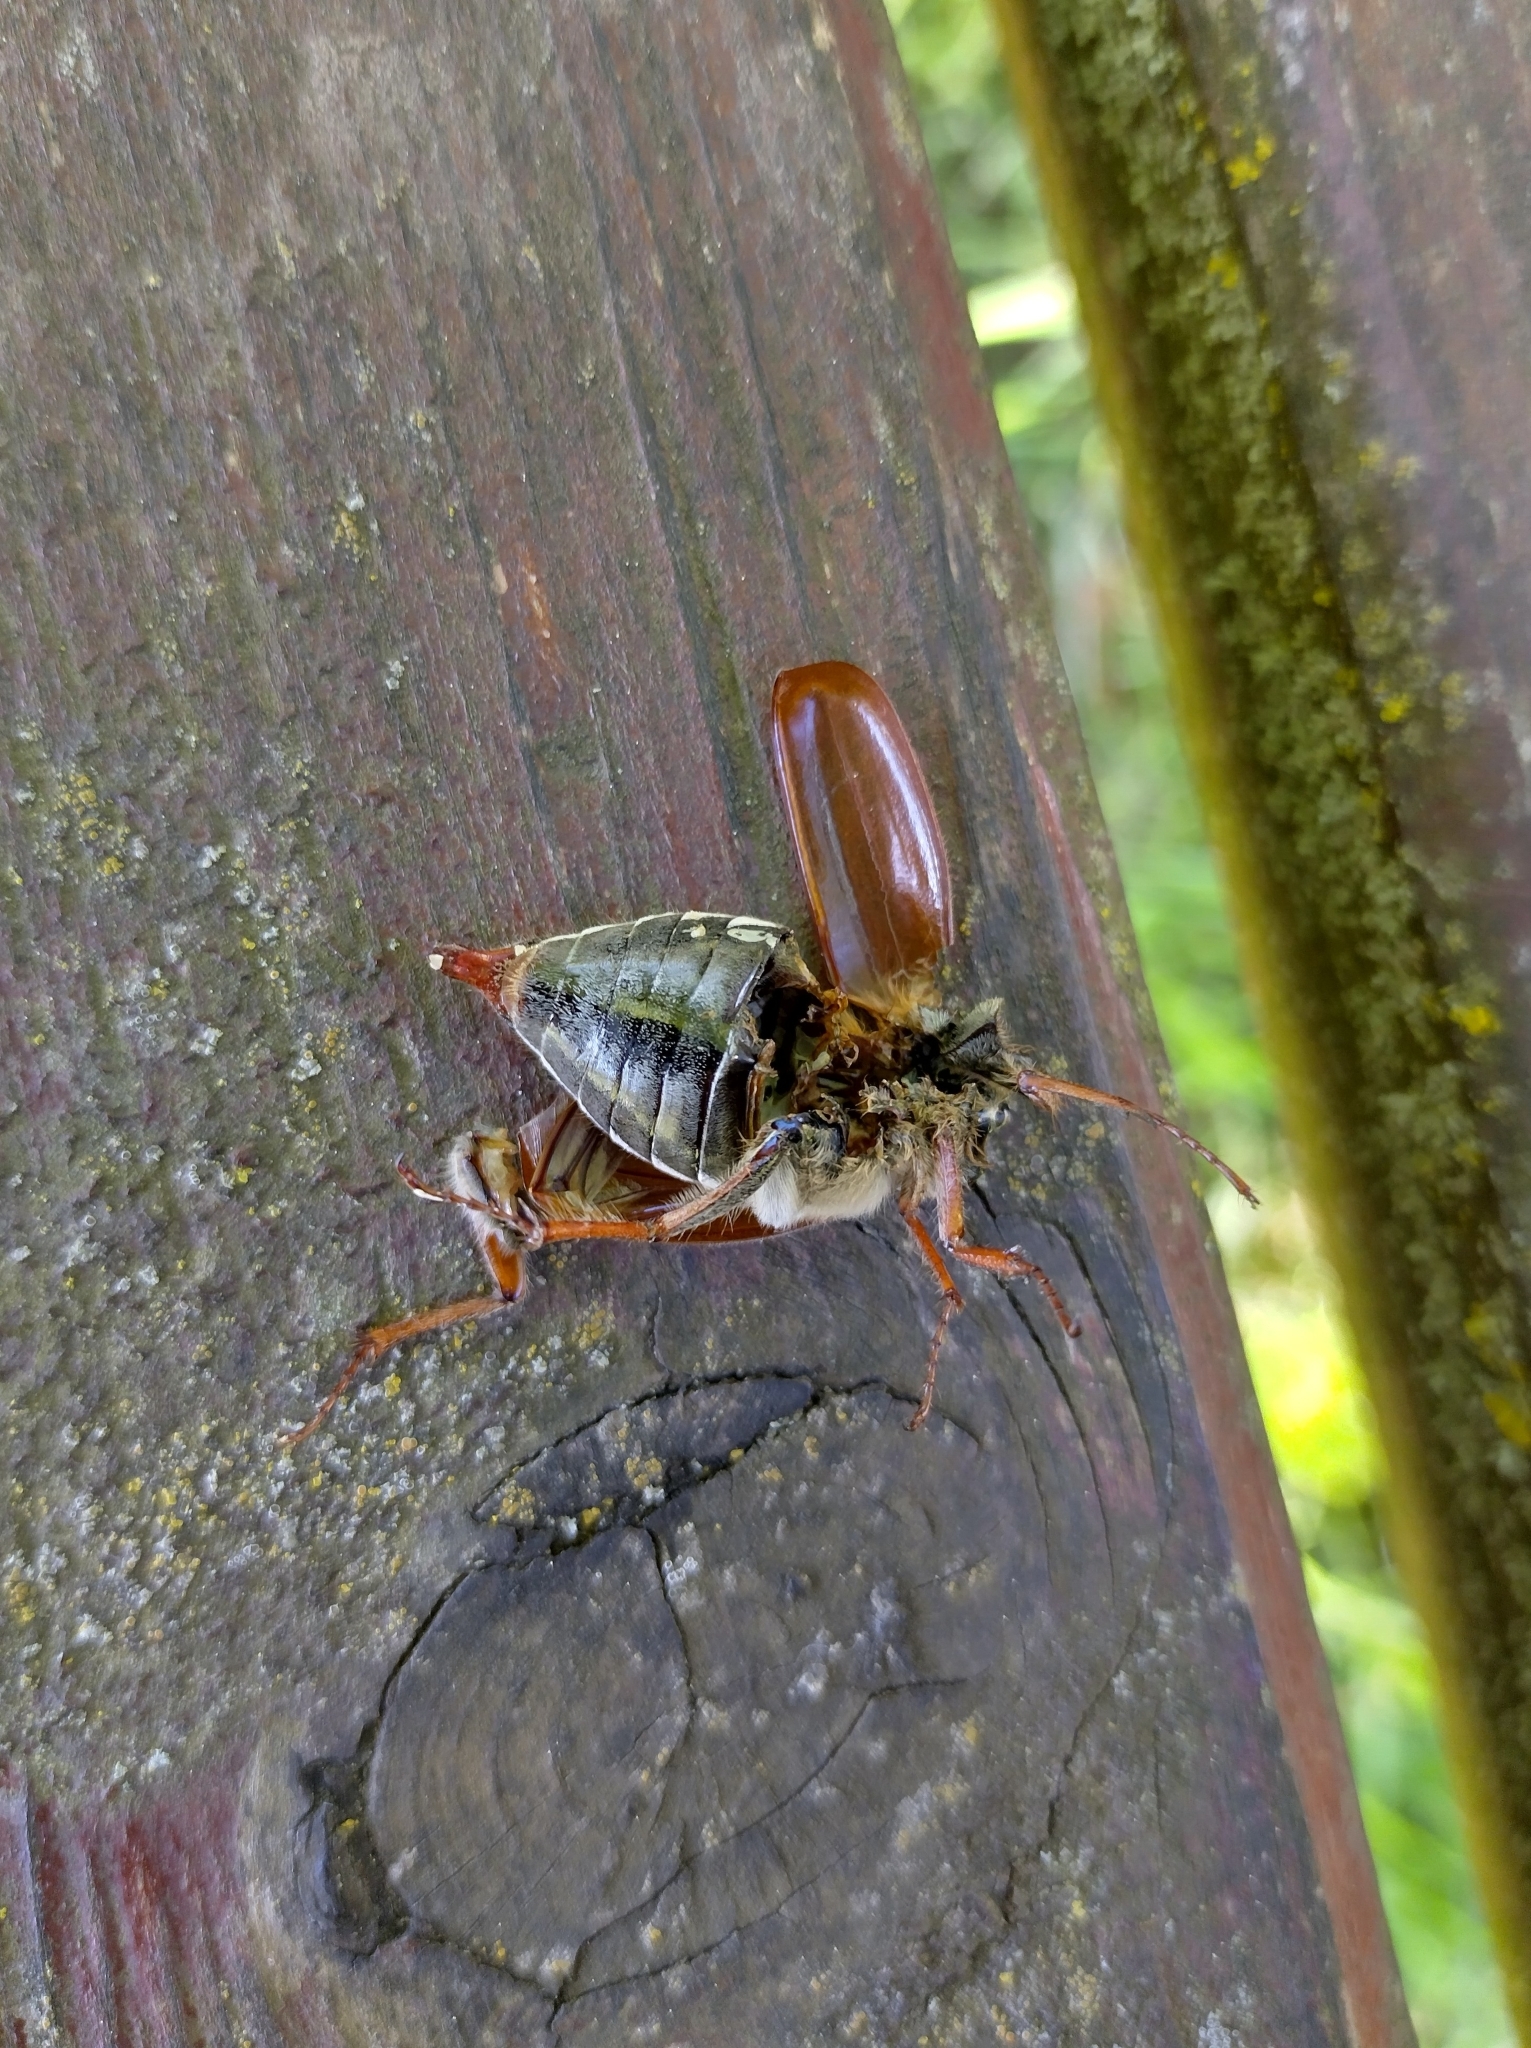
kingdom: Animalia
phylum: Arthropoda
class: Insecta
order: Coleoptera
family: Scarabaeidae
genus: Melolontha
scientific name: Melolontha melolontha
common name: Cockchafer maybeetle
